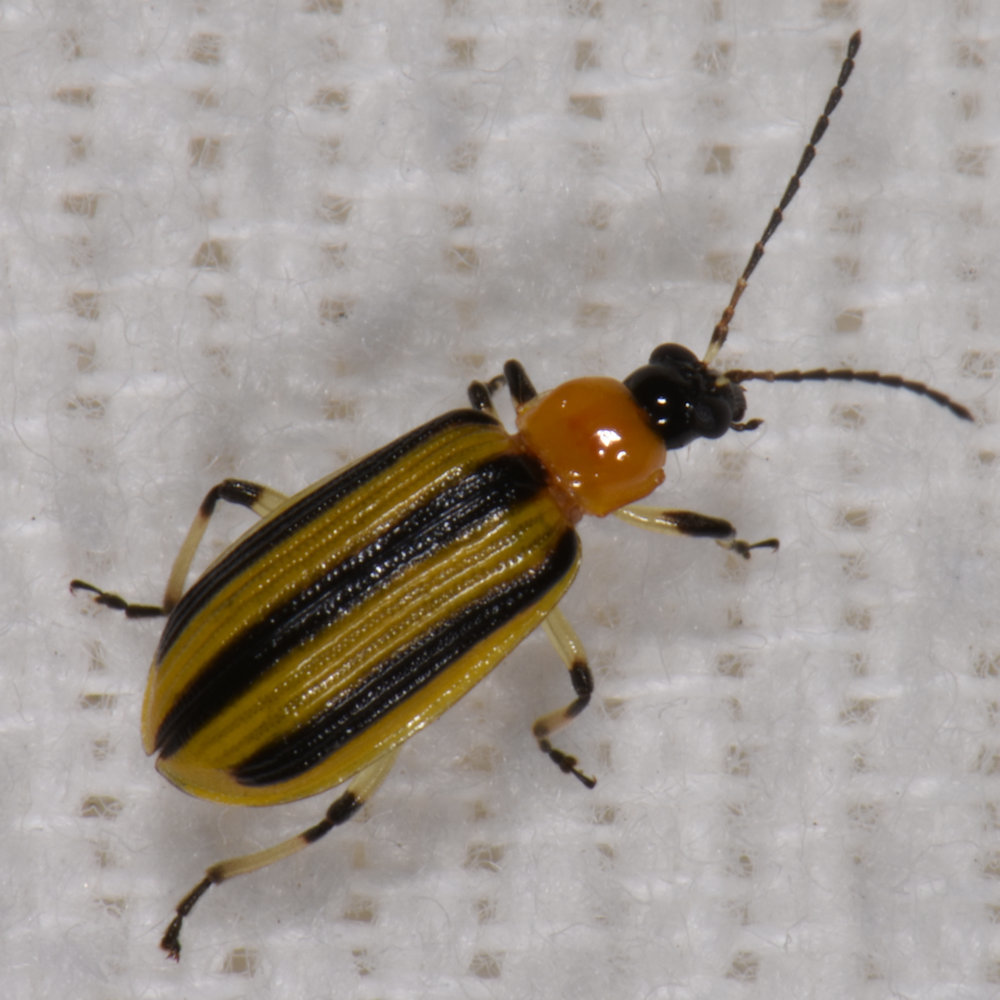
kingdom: Animalia
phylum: Arthropoda
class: Insecta
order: Coleoptera
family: Chrysomelidae
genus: Acalymma
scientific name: Acalymma vittatum
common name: Striped cucumber beetle
